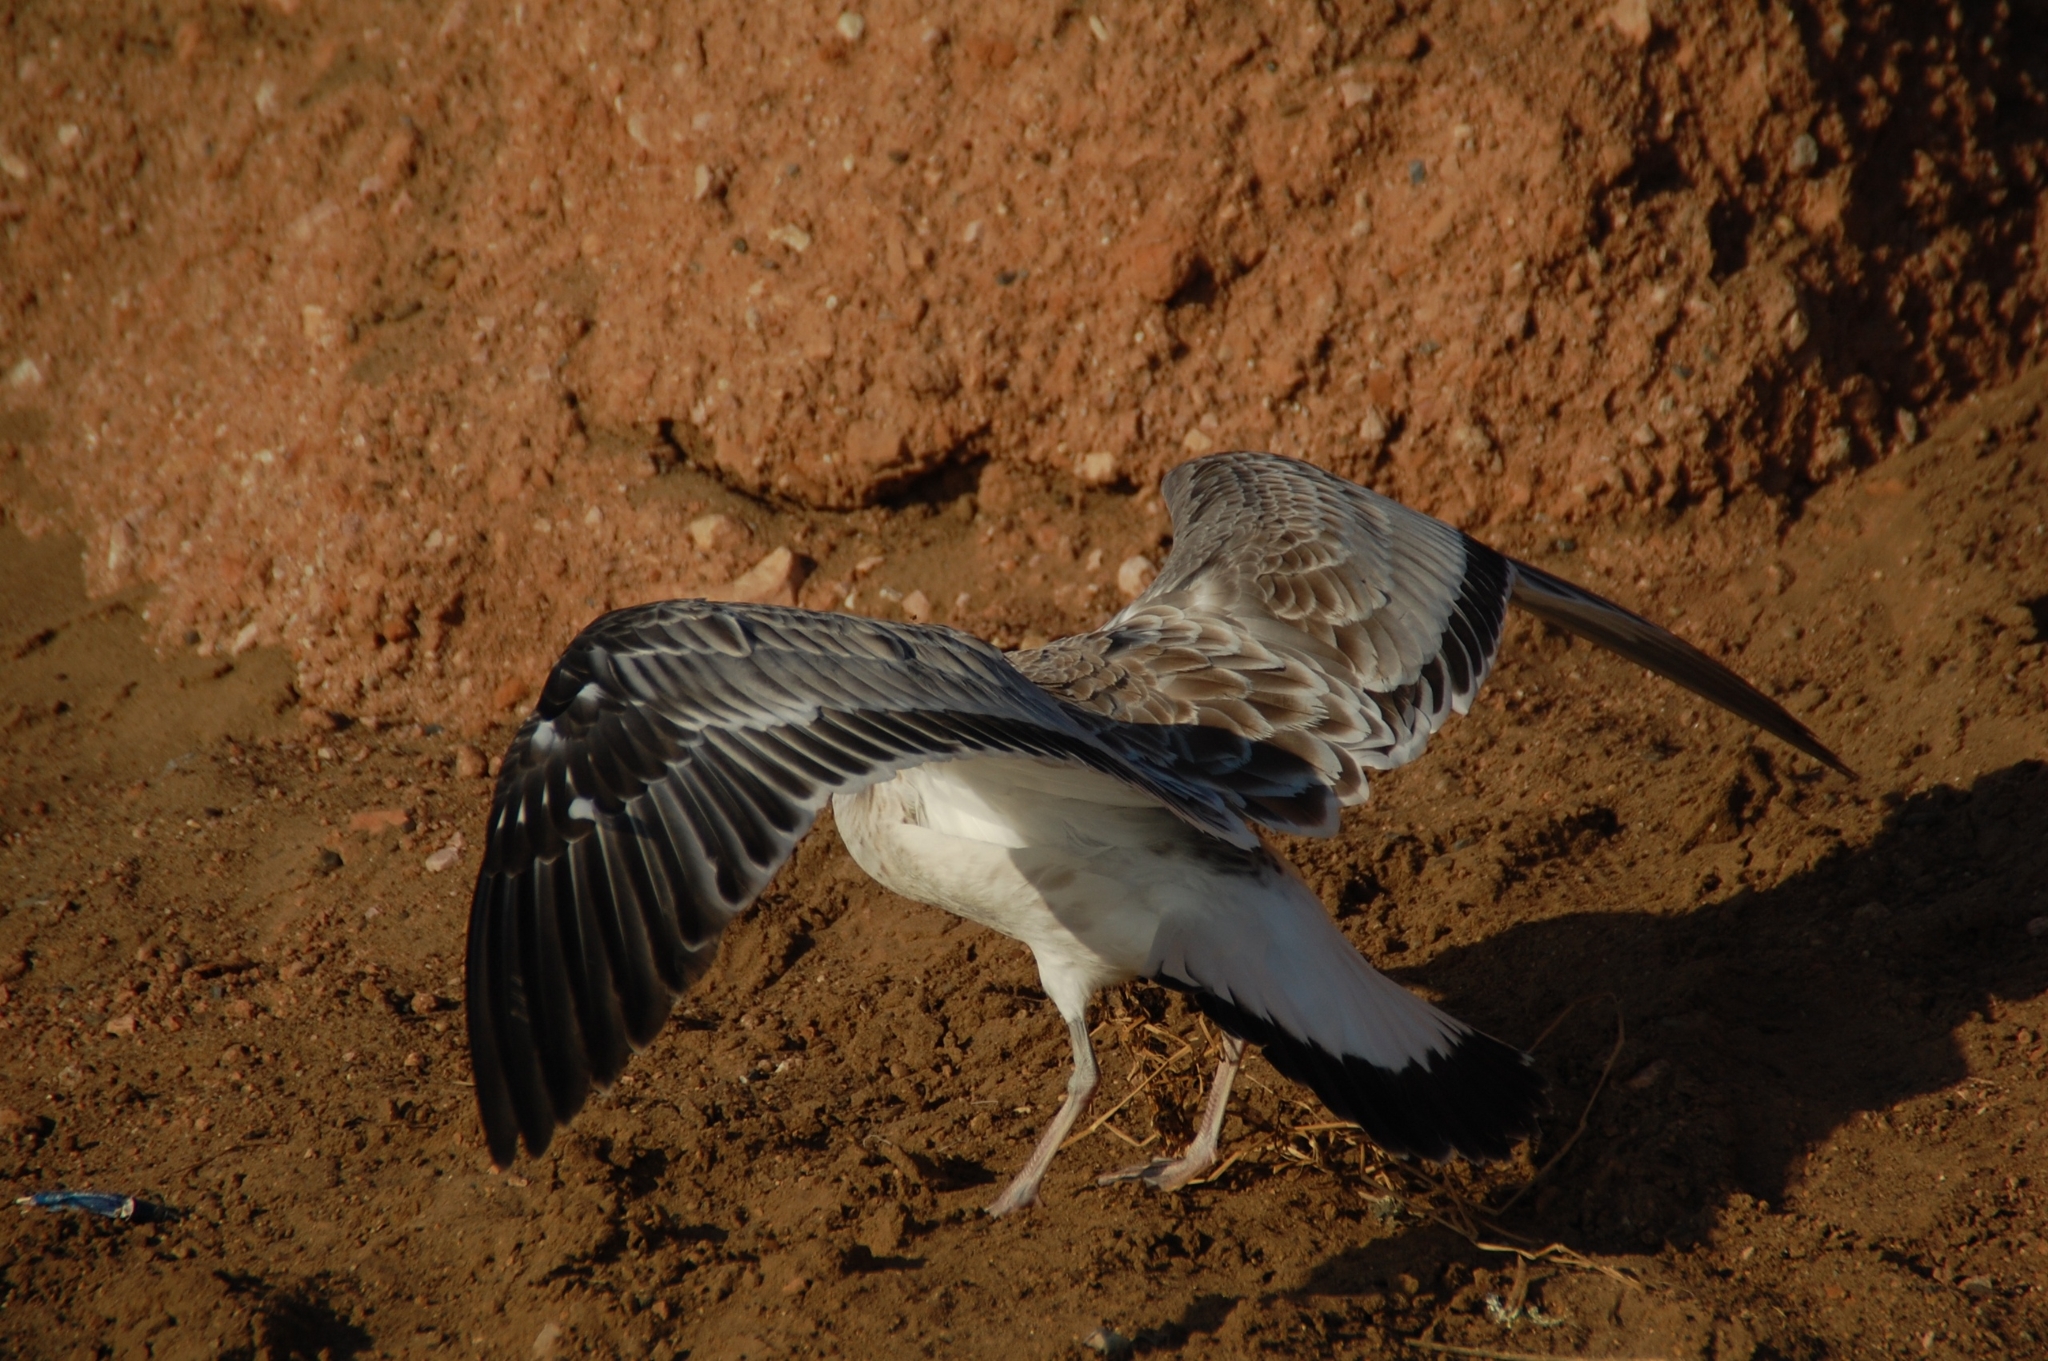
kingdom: Animalia
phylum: Chordata
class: Aves
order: Charadriiformes
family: Laridae
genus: Ichthyaetus
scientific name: Ichthyaetus ichthyaetus
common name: Pallas's gull
